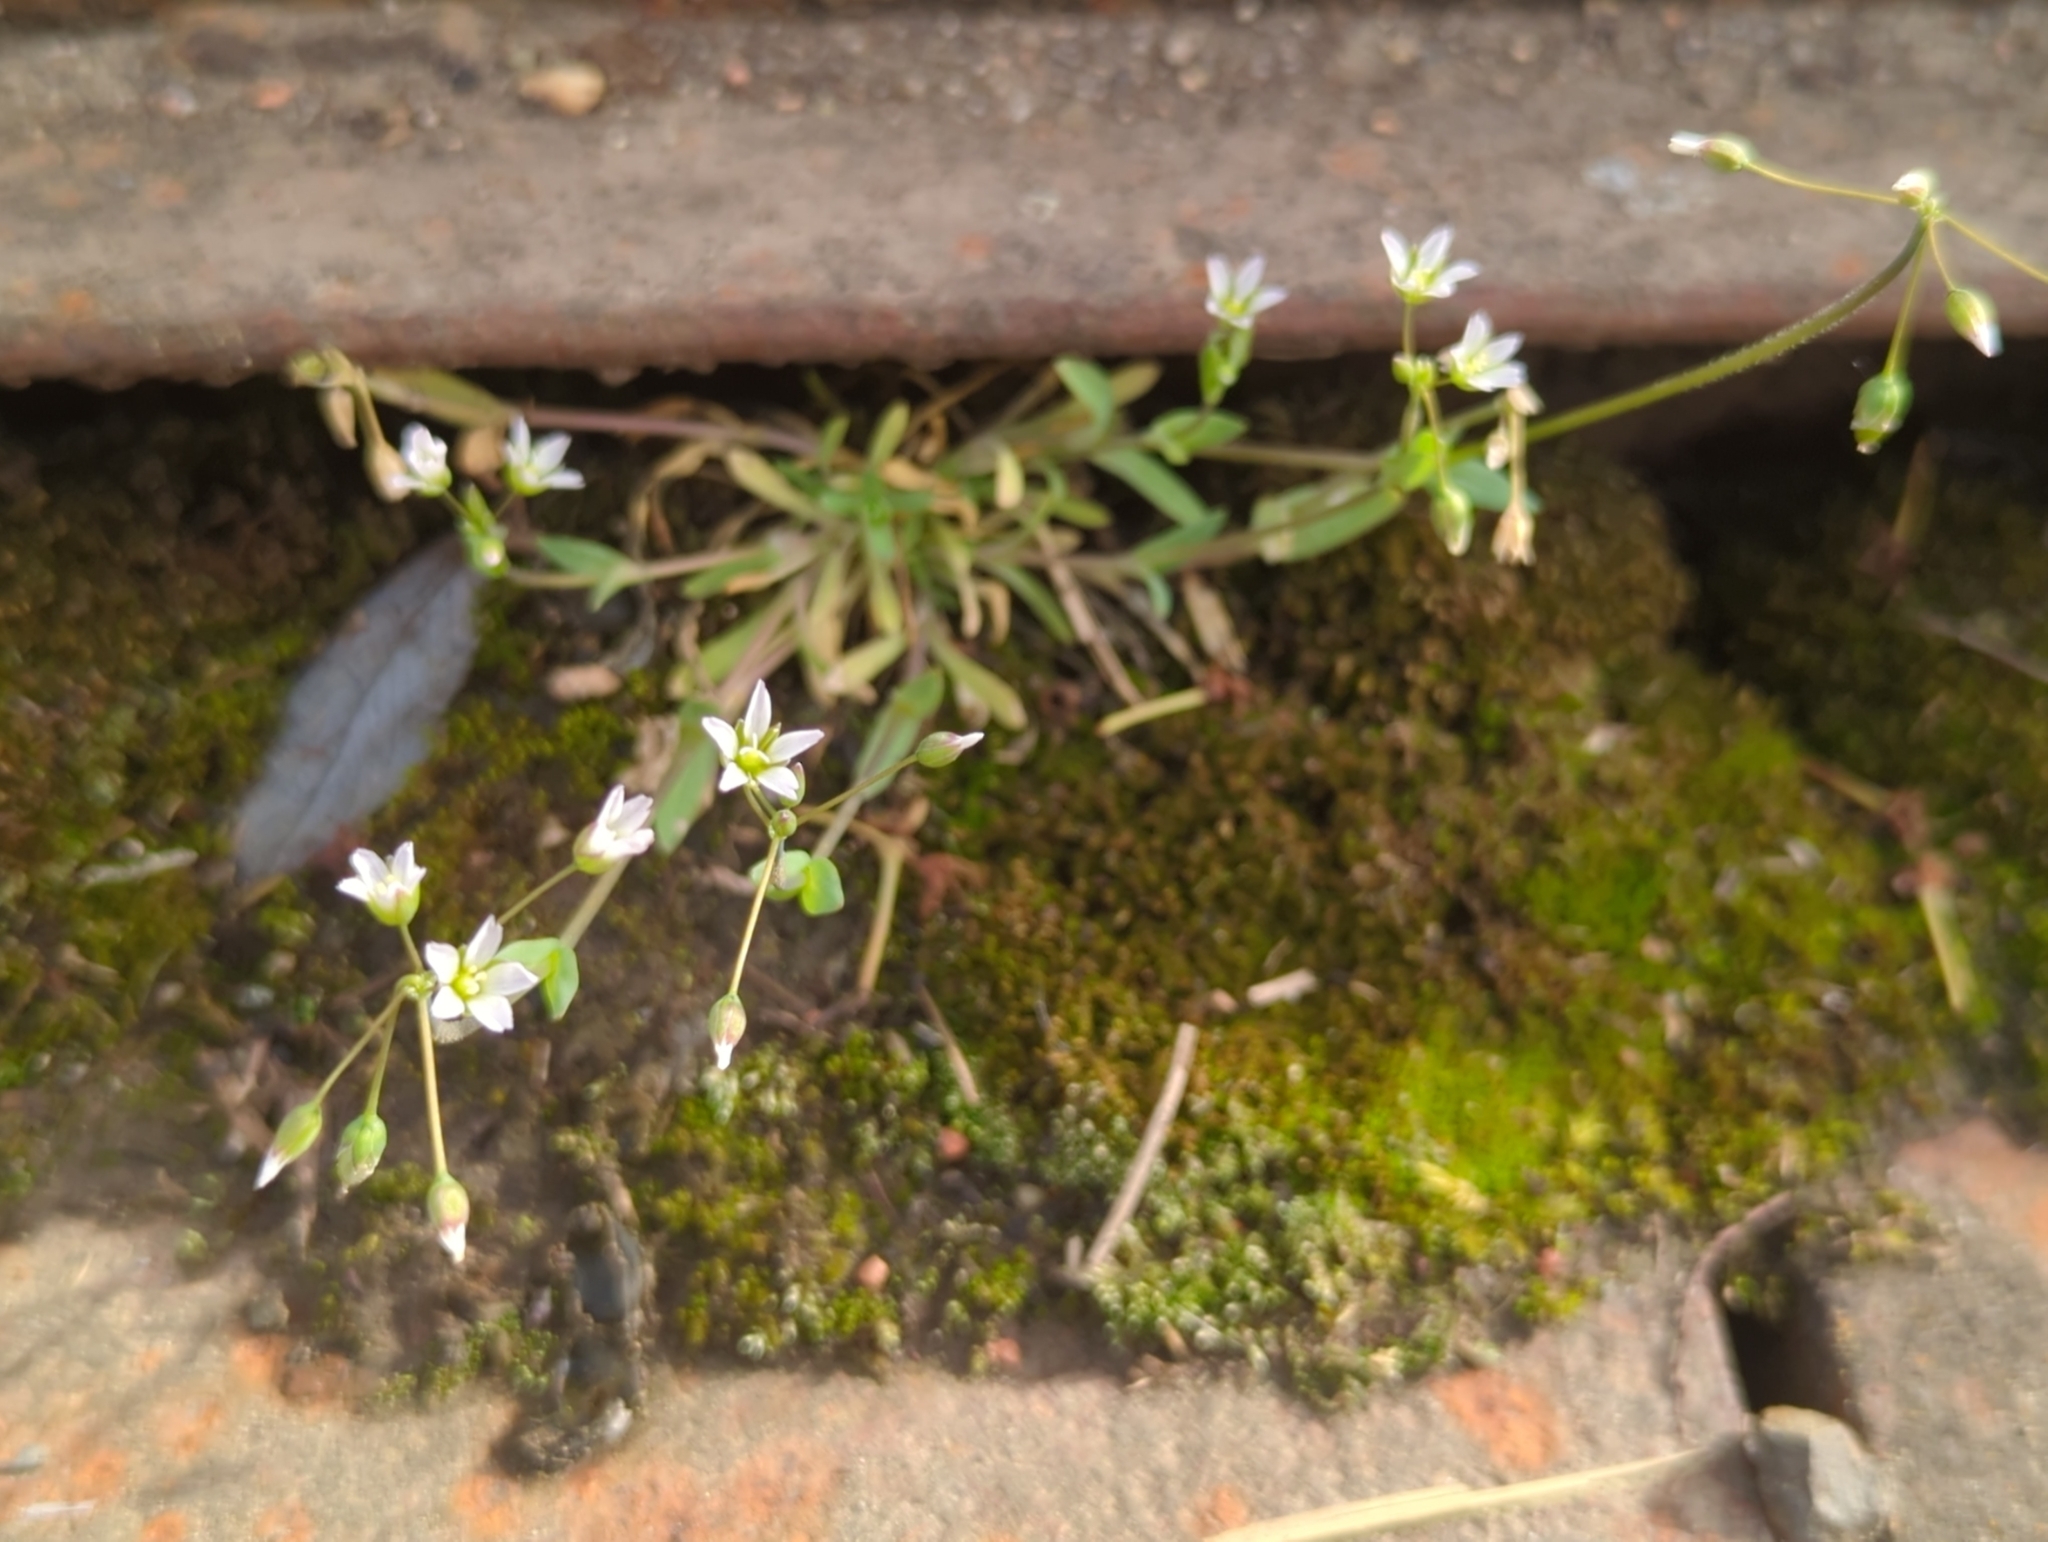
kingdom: Plantae
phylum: Tracheophyta
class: Magnoliopsida
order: Caryophyllales
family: Caryophyllaceae
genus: Holosteum
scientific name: Holosteum umbellatum
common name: Jagged chickweed
